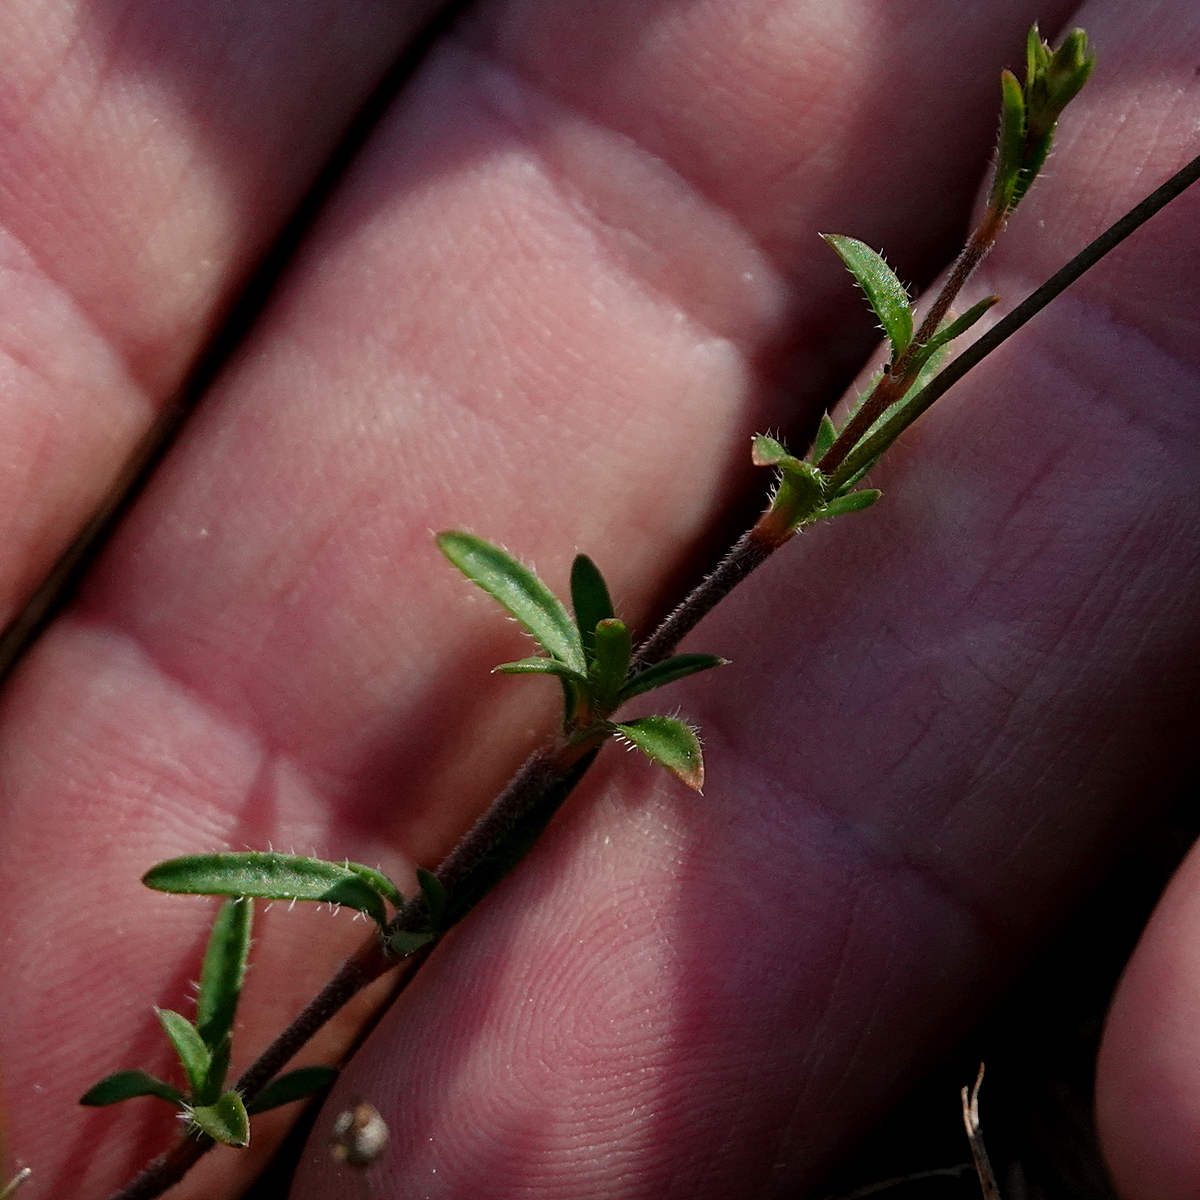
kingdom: Plantae
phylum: Tracheophyta
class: Magnoliopsida
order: Gentianales
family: Loganiaceae
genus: Mitrasacme
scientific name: Mitrasacme polymorpha
